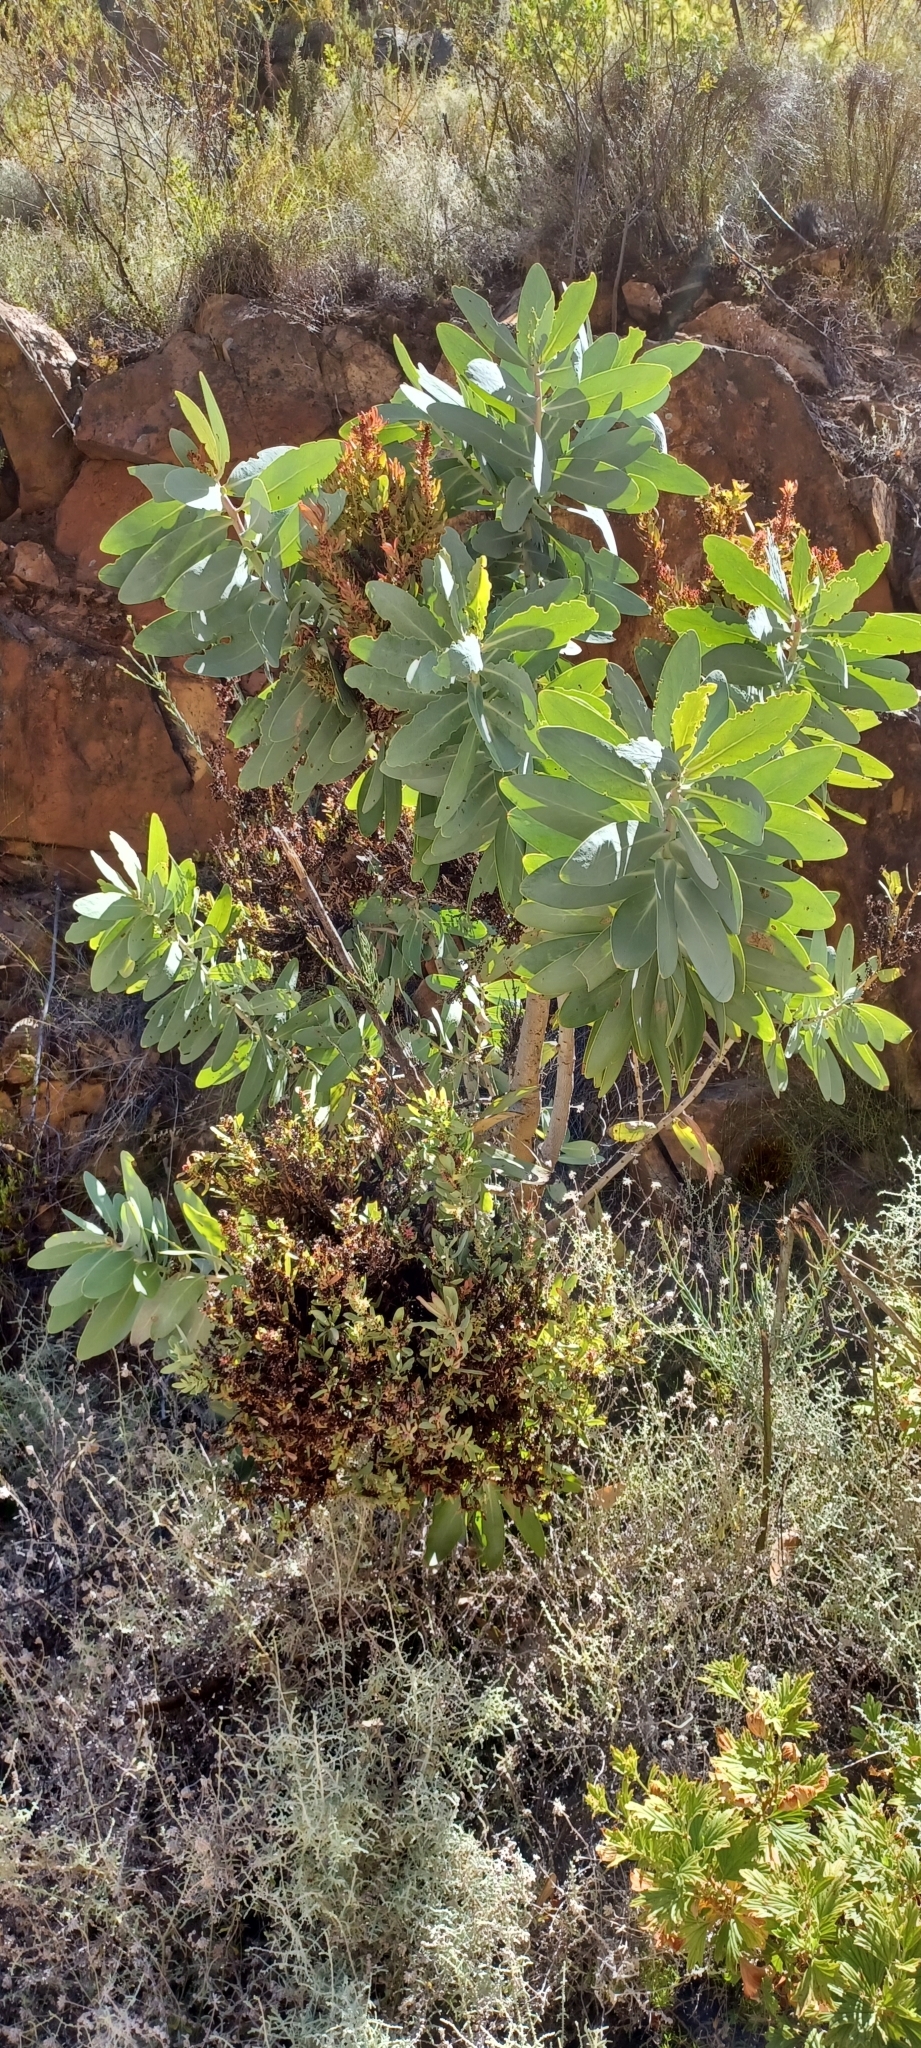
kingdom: Plantae
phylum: Tracheophyta
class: Magnoliopsida
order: Proteales
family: Proteaceae
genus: Protea
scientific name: Protea nitida
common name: Tree protea
